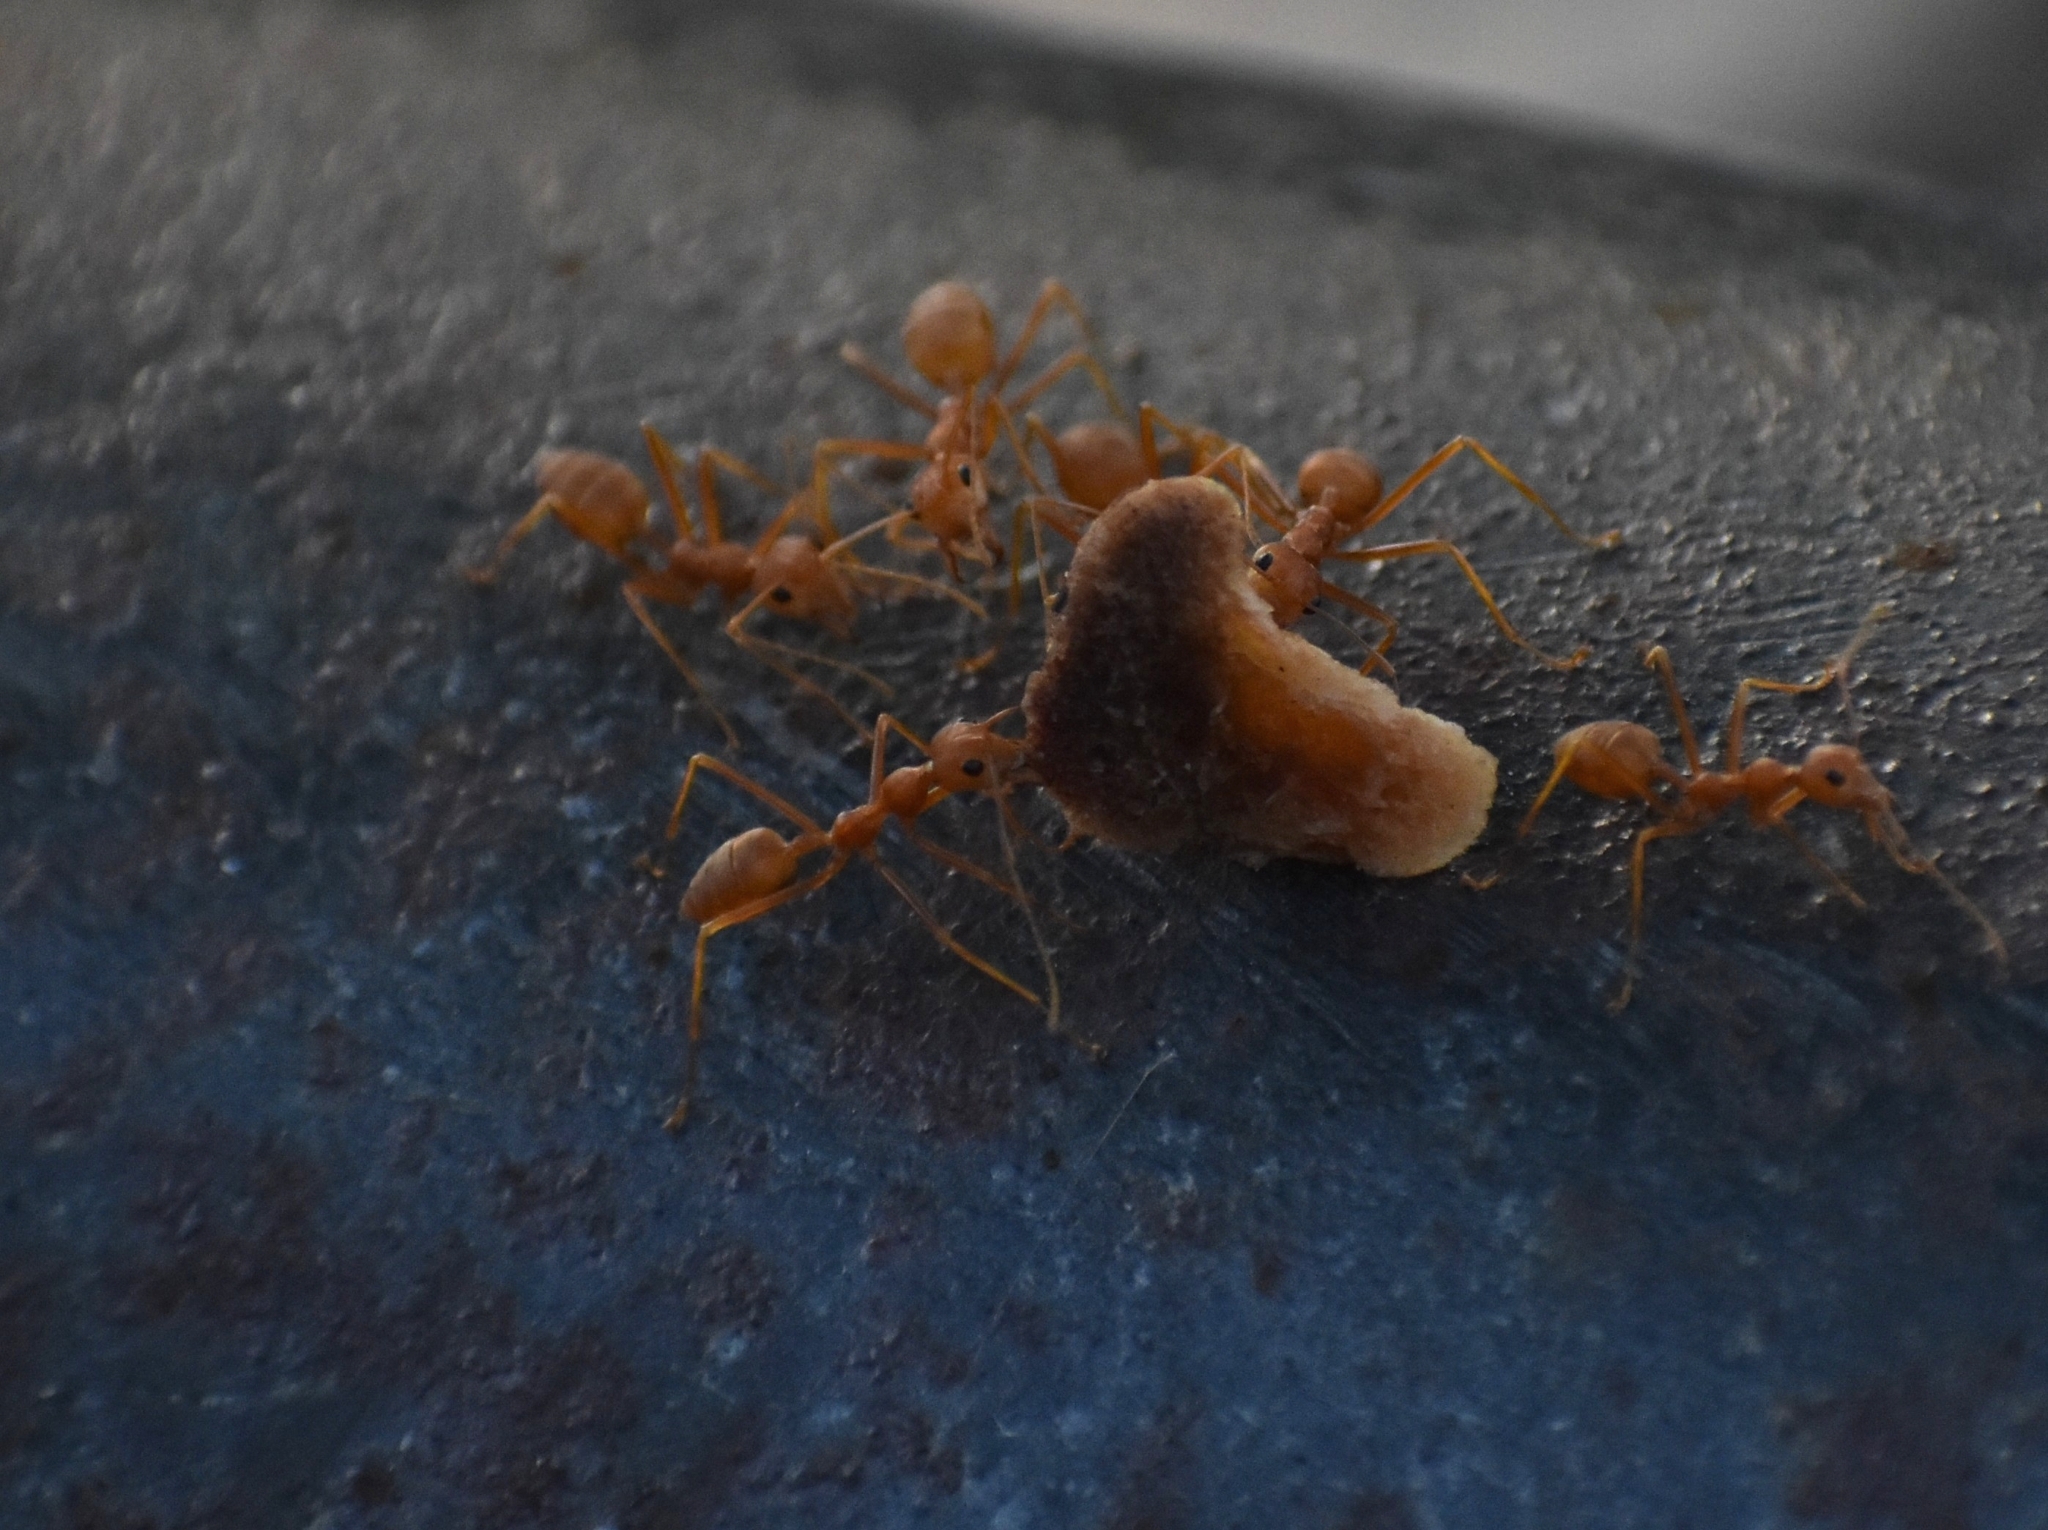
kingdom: Animalia
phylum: Arthropoda
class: Insecta
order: Hymenoptera
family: Formicidae
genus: Oecophylla
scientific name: Oecophylla smaragdina
